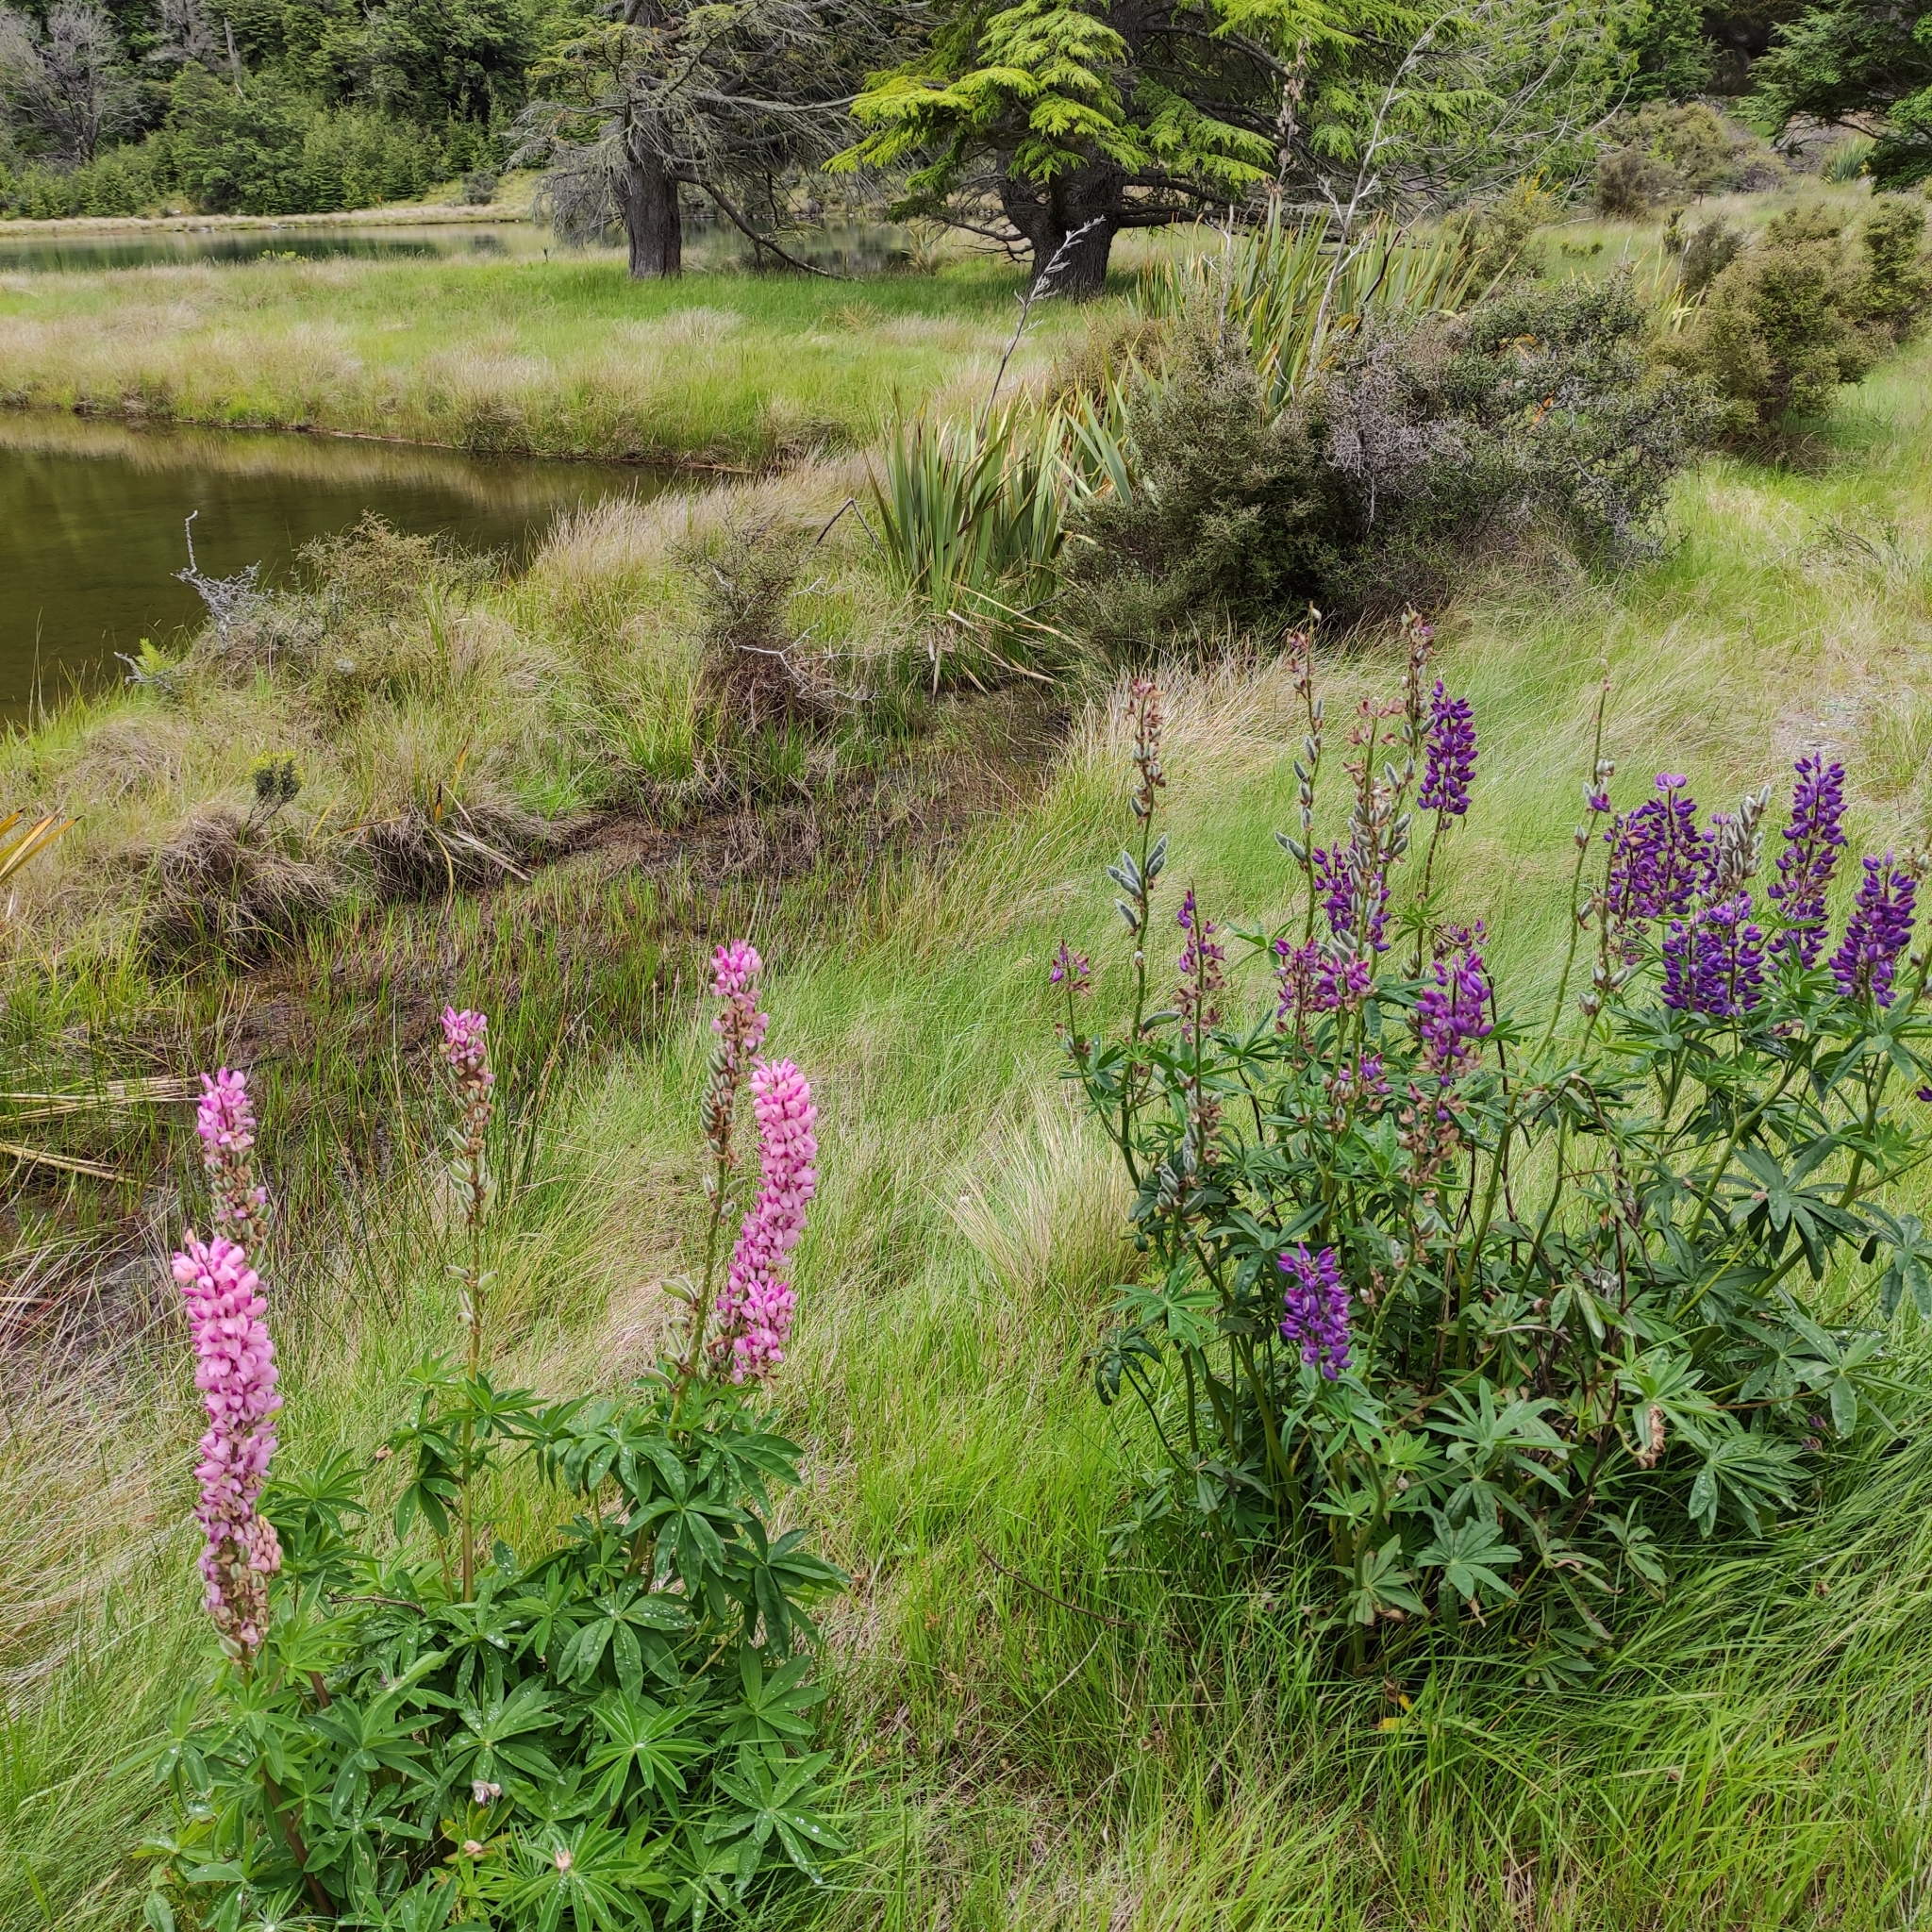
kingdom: Plantae
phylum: Tracheophyta
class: Magnoliopsida
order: Fabales
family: Fabaceae
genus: Lupinus
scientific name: Lupinus polyphyllus
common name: Garden lupin
